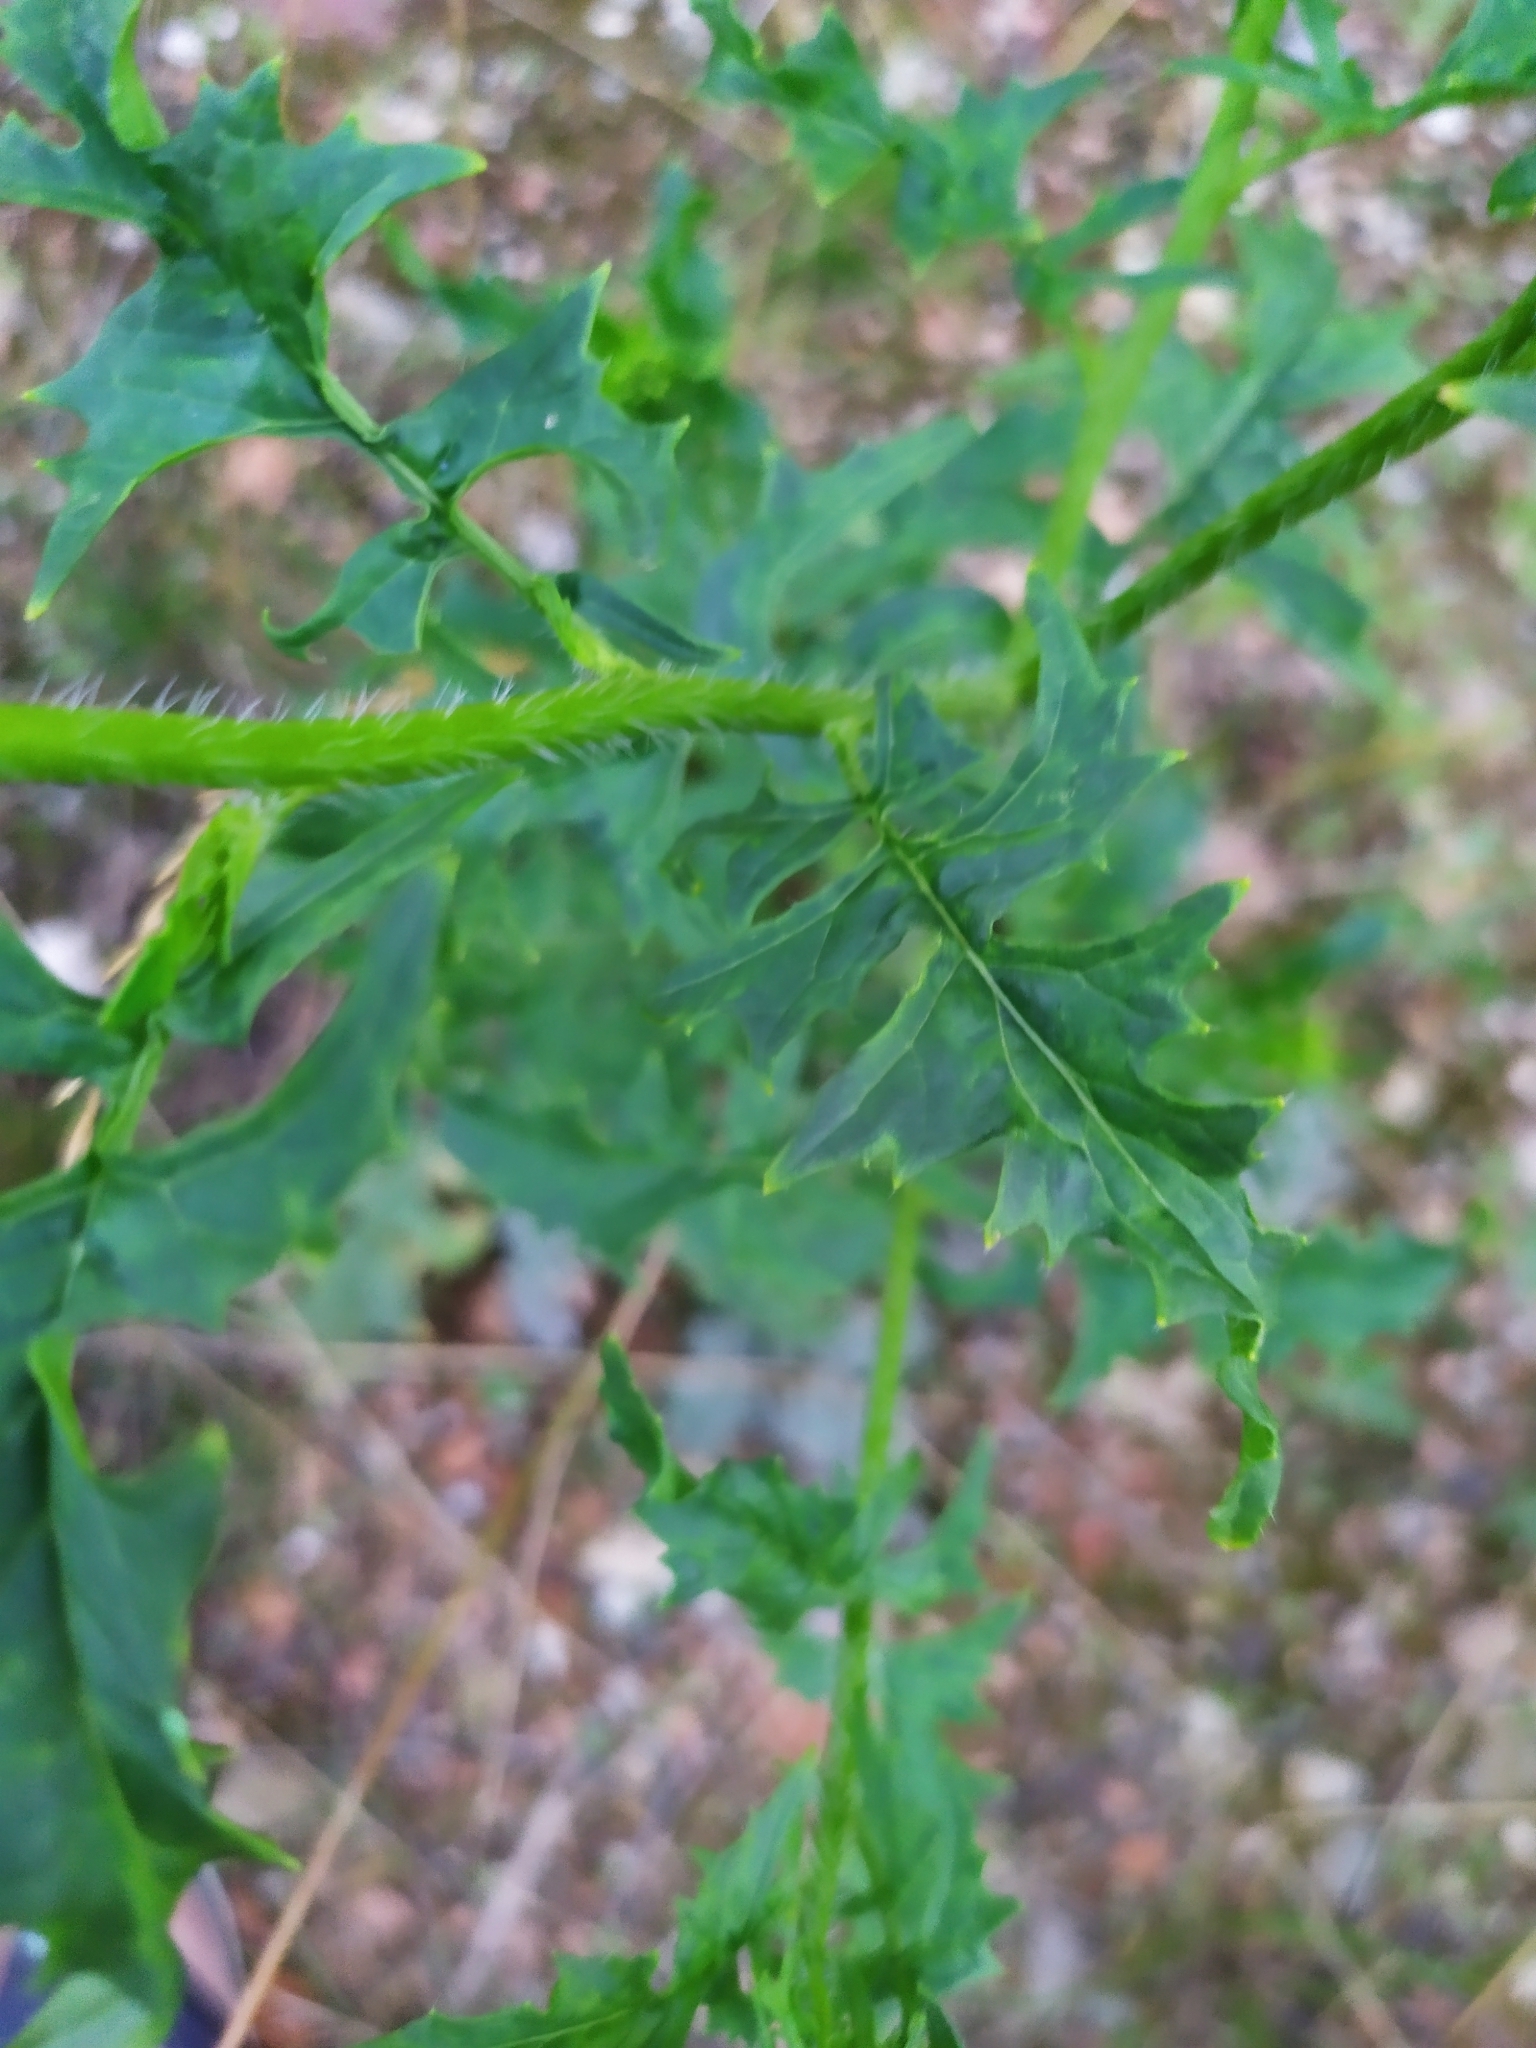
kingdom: Plantae
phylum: Tracheophyta
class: Magnoliopsida
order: Brassicales
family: Brassicaceae
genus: Sisymbrium
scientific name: Sisymbrium loeselii
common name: False london-rocket
